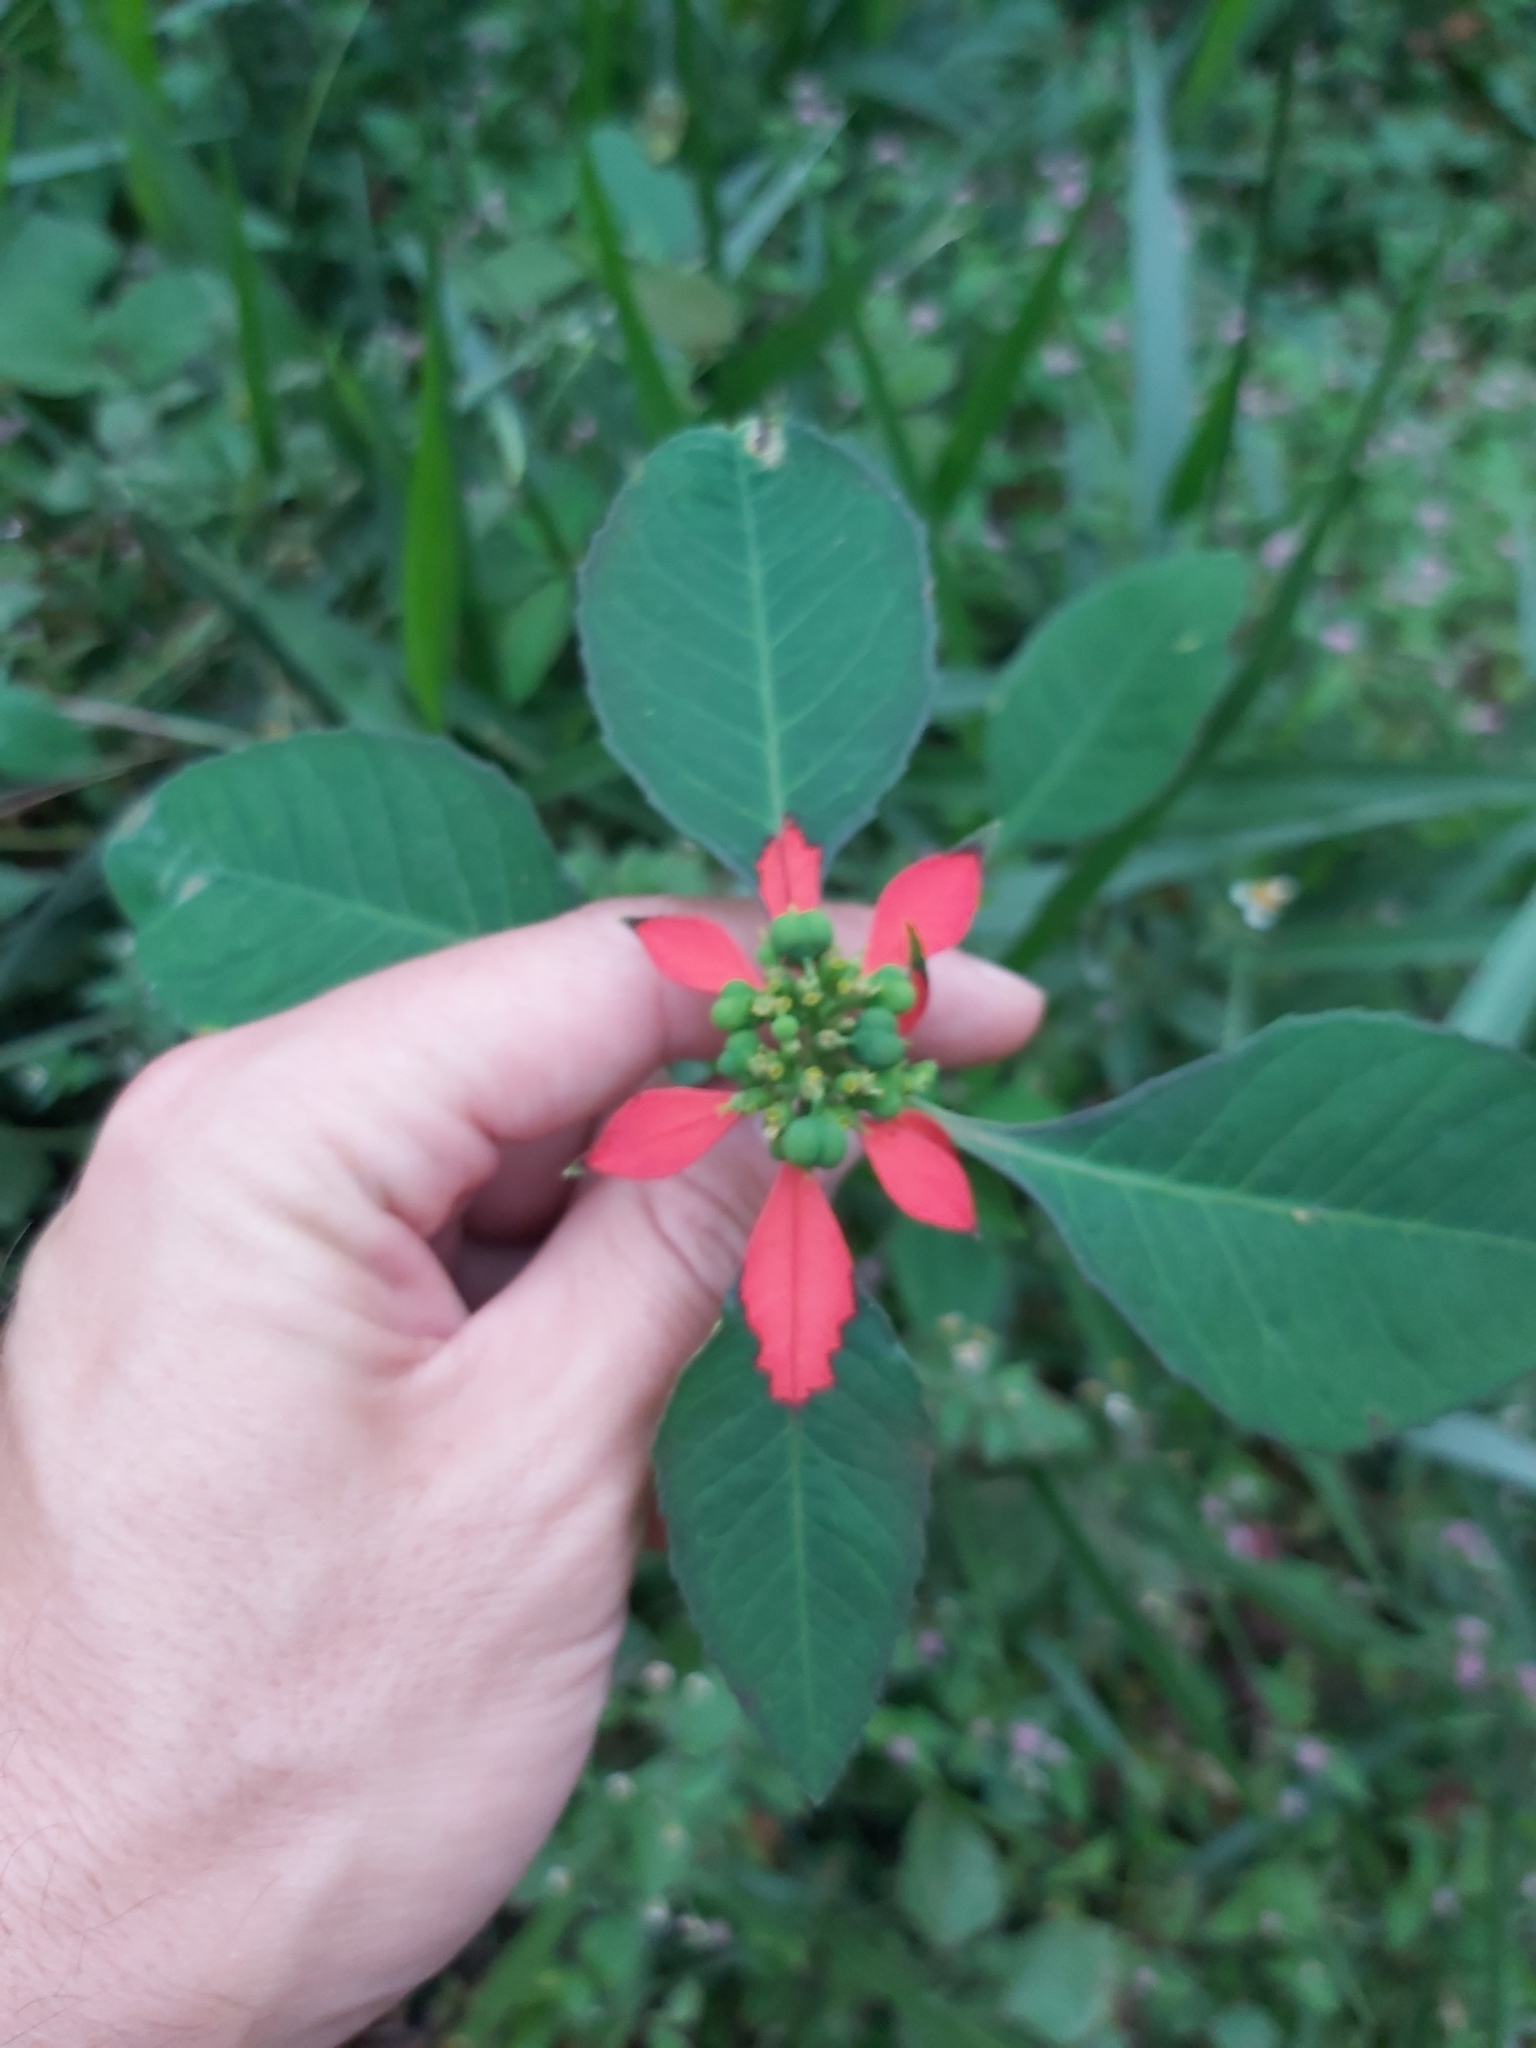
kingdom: Plantae
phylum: Tracheophyta
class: Magnoliopsida
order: Malpighiales
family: Euphorbiaceae
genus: Euphorbia
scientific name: Euphorbia heterophylla
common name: Mexican fireplant
